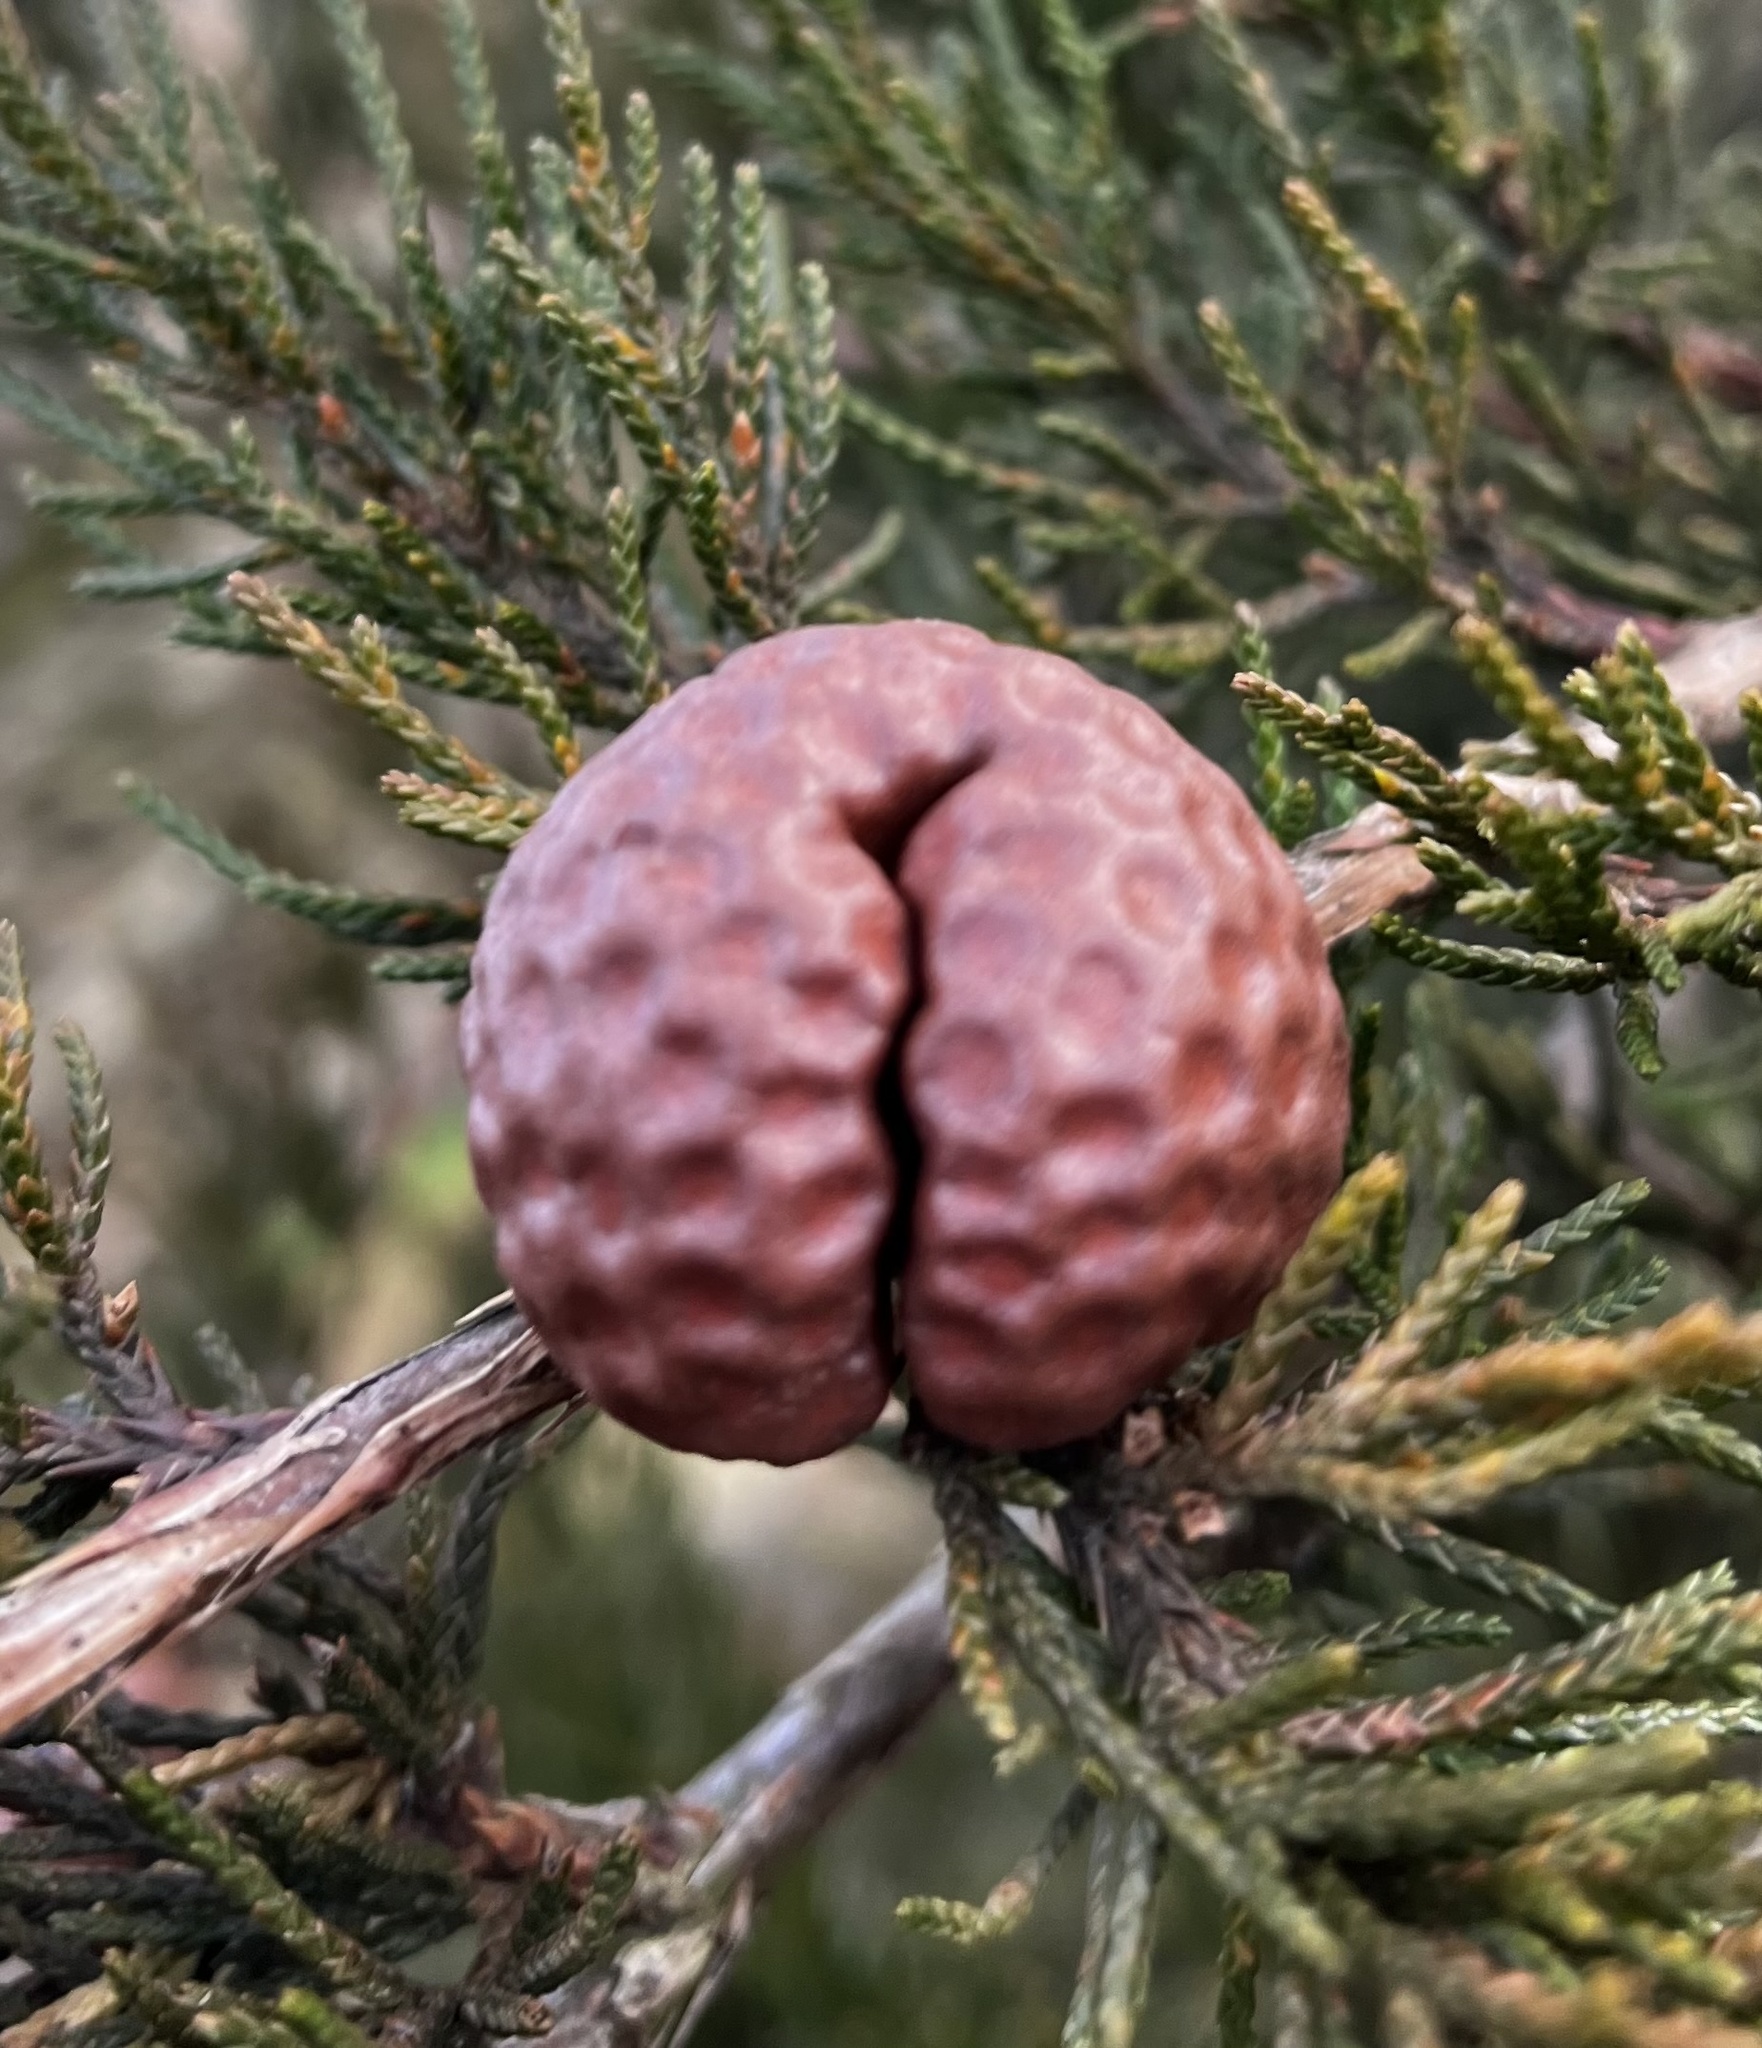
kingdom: Fungi
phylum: Basidiomycota
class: Pucciniomycetes
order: Pucciniales
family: Gymnosporangiaceae
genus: Gymnosporangium
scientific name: Gymnosporangium juniperi-virginianae
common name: Juniper-apple rust
